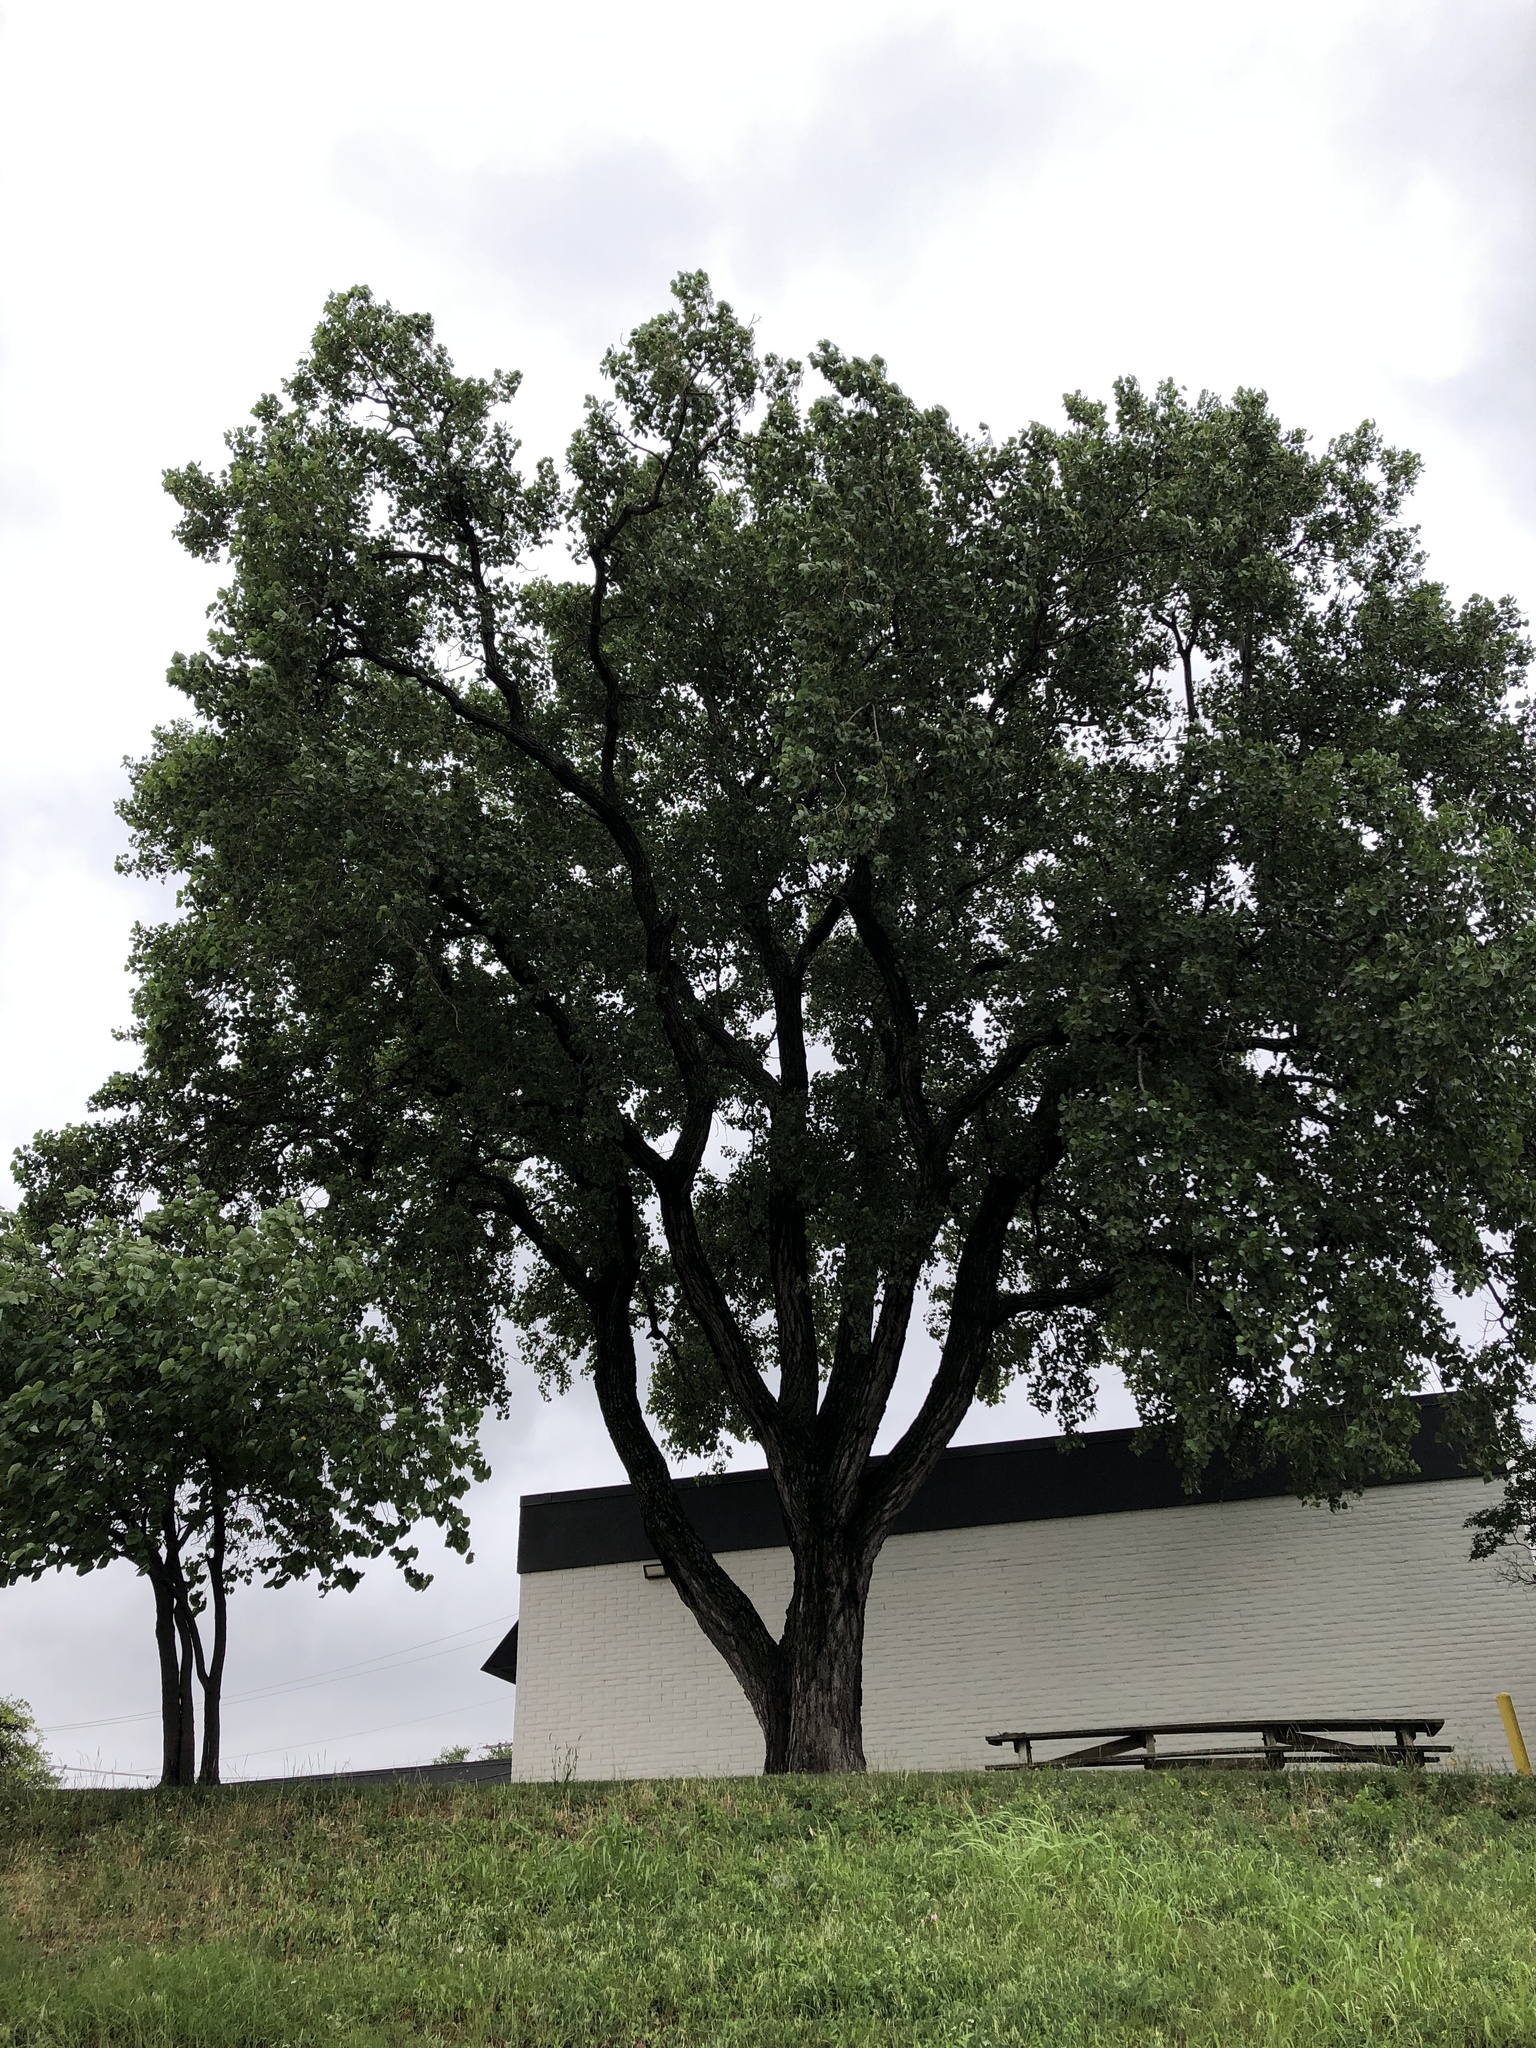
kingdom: Plantae
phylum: Tracheophyta
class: Magnoliopsida
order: Malpighiales
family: Salicaceae
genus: Populus
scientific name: Populus deltoides
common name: Eastern cottonwood
